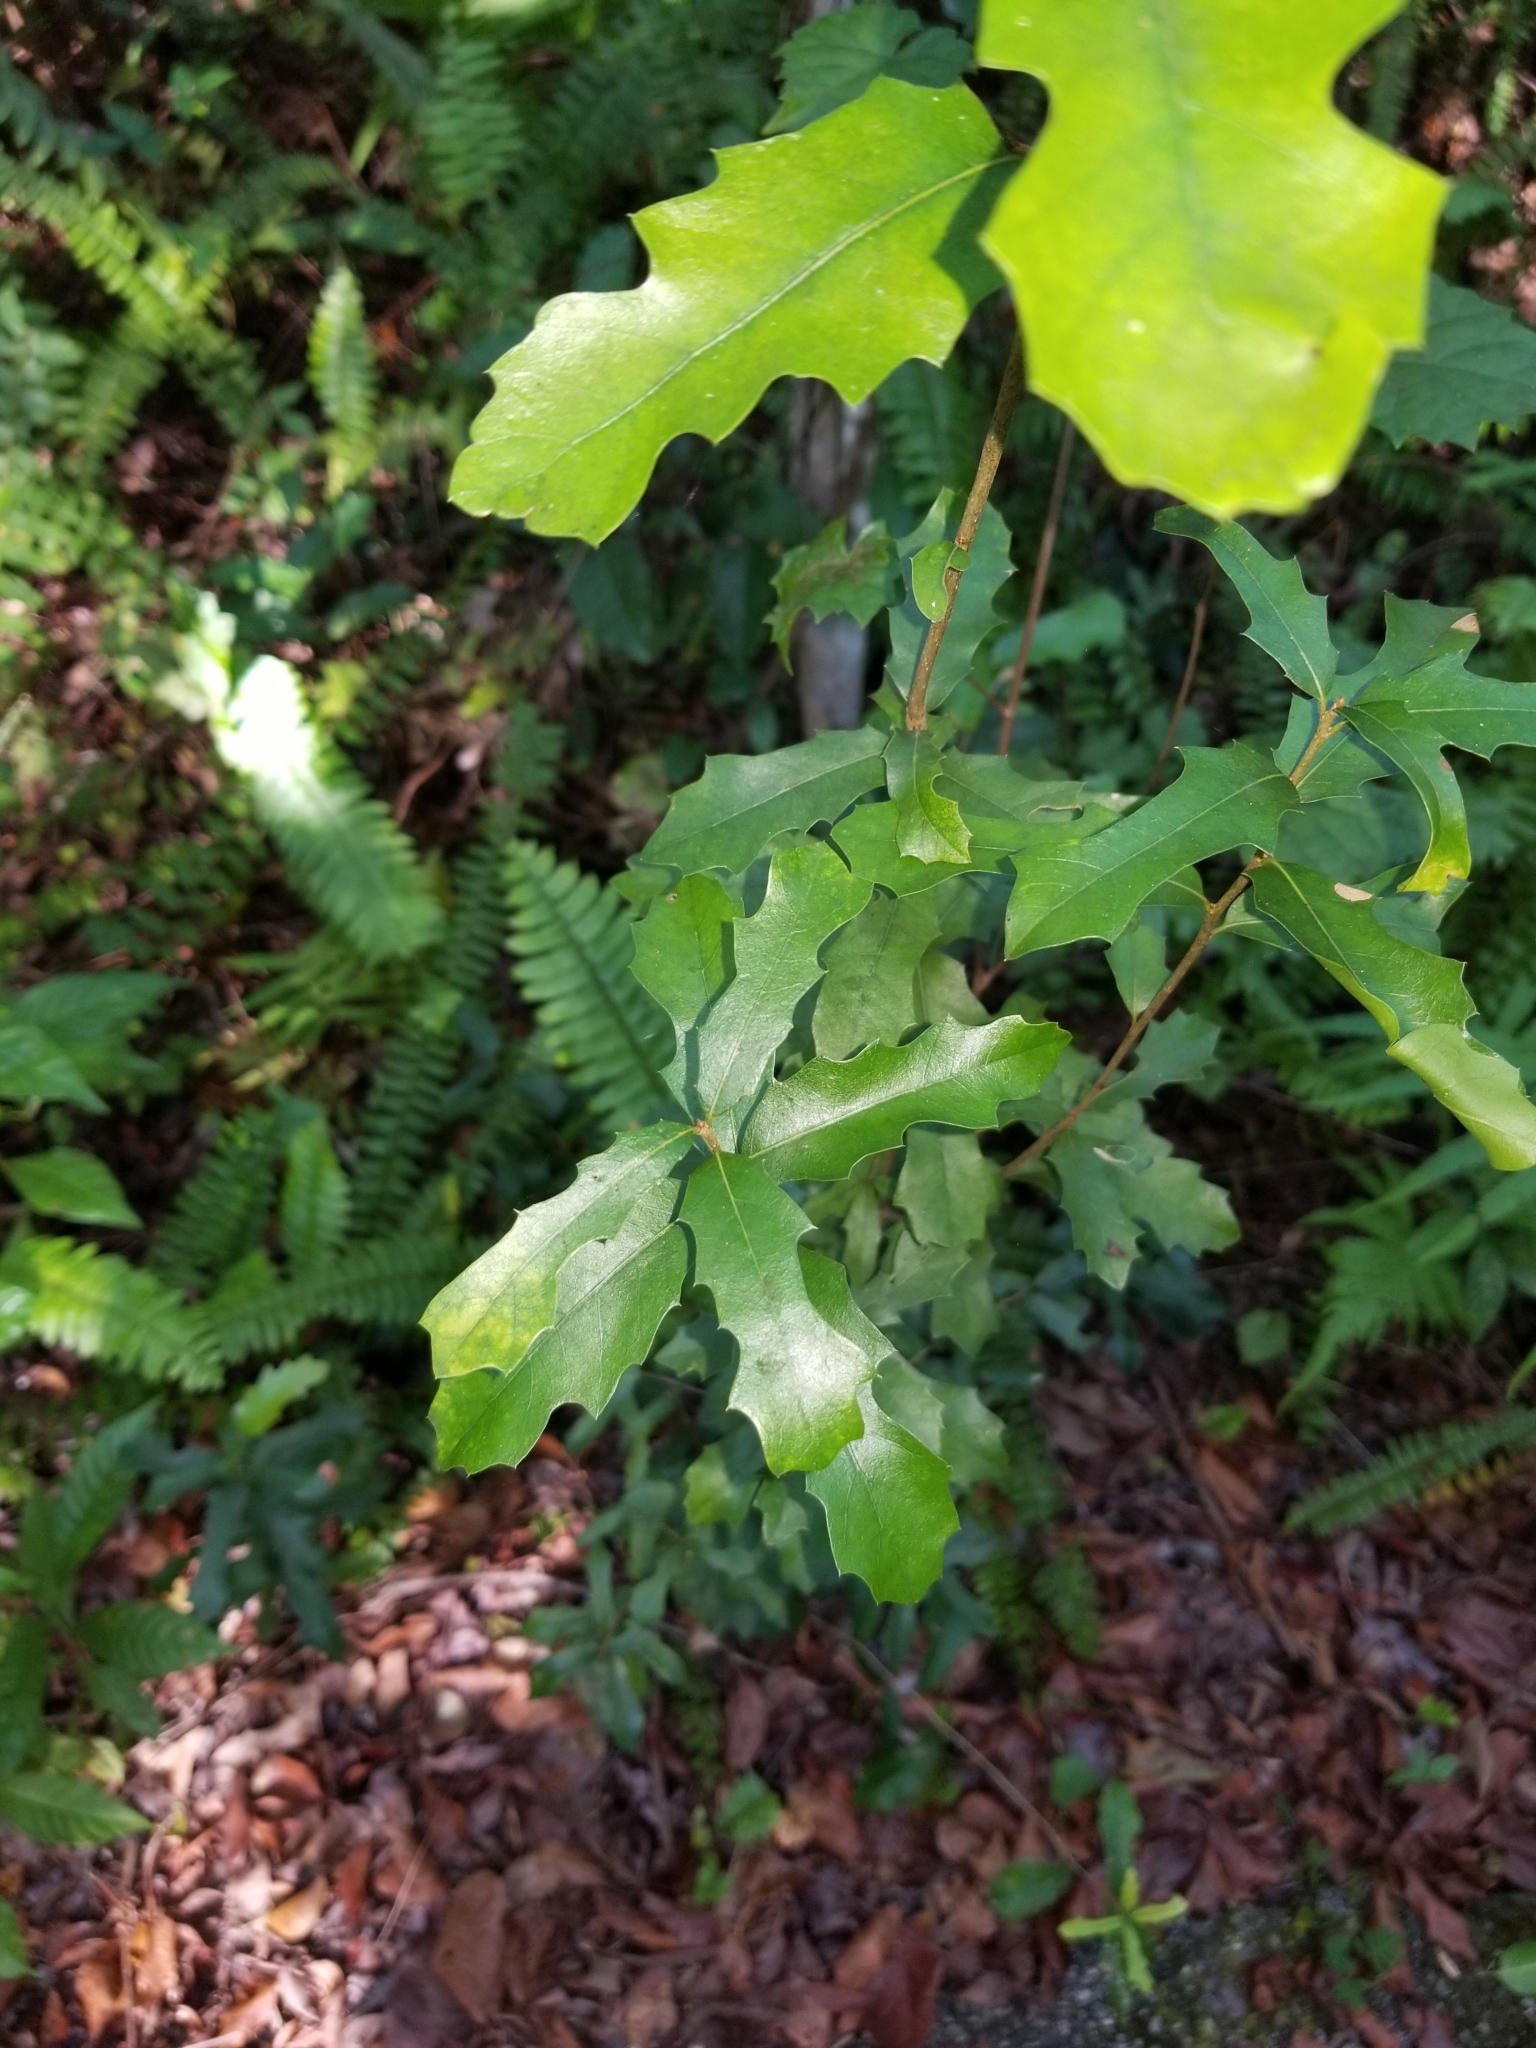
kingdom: Plantae
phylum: Tracheophyta
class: Magnoliopsida
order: Fagales
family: Fagaceae
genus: Quercus
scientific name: Quercus virginiana
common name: Southern live oak
